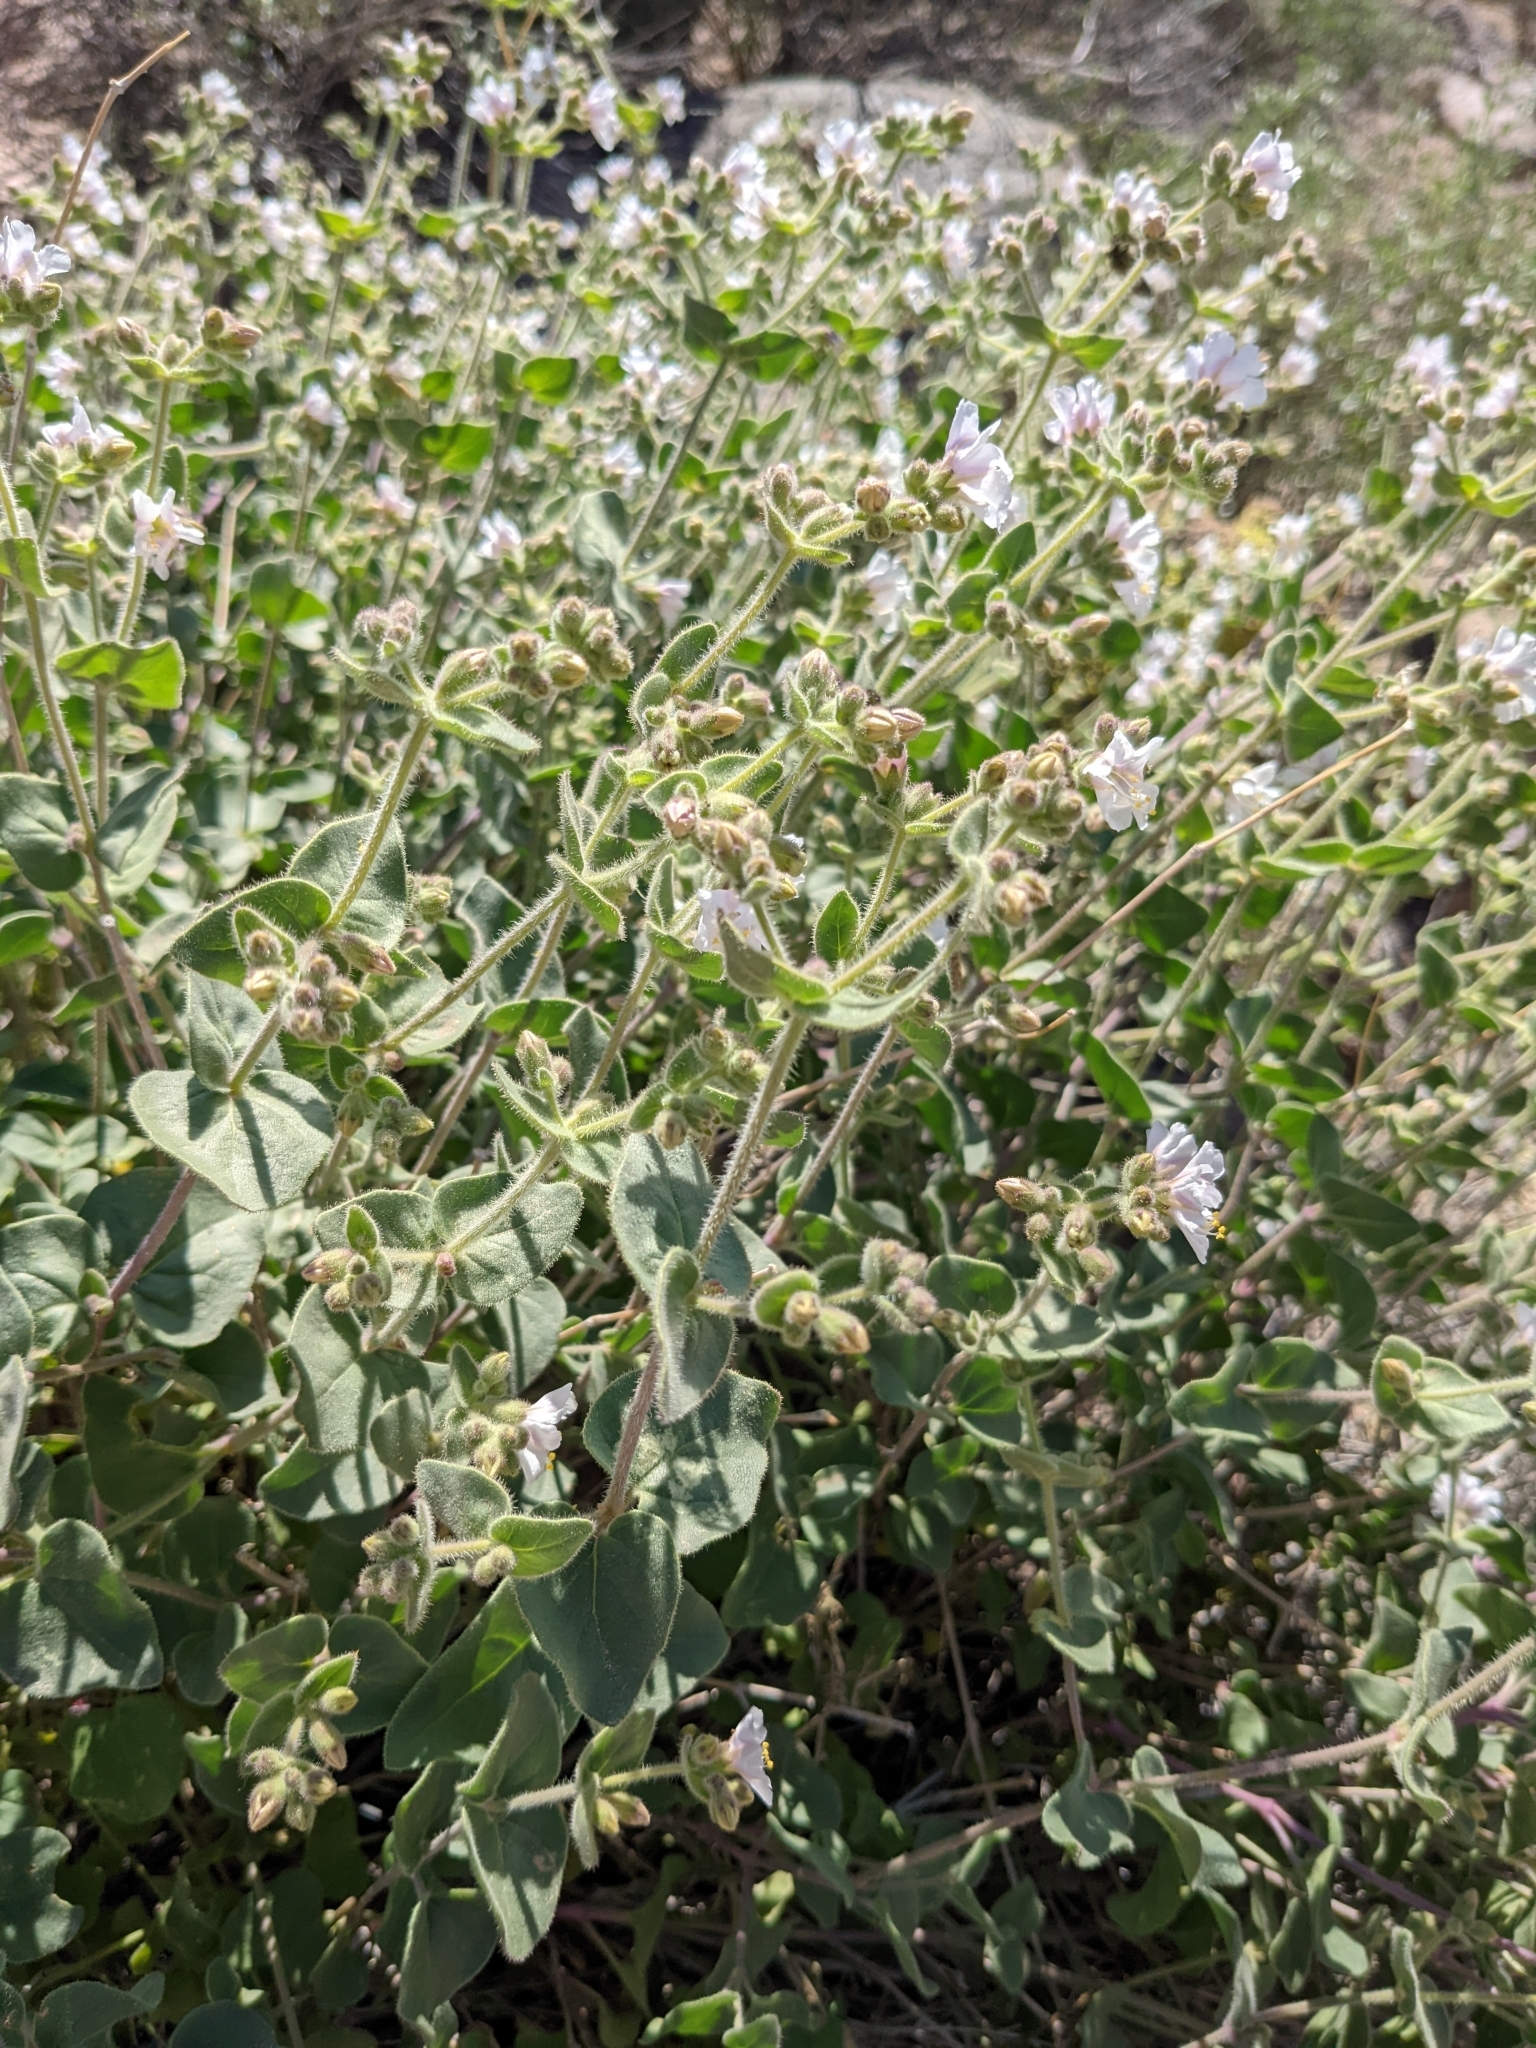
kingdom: Plantae
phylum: Tracheophyta
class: Magnoliopsida
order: Caryophyllales
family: Nyctaginaceae
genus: Mirabilis
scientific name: Mirabilis laevis
